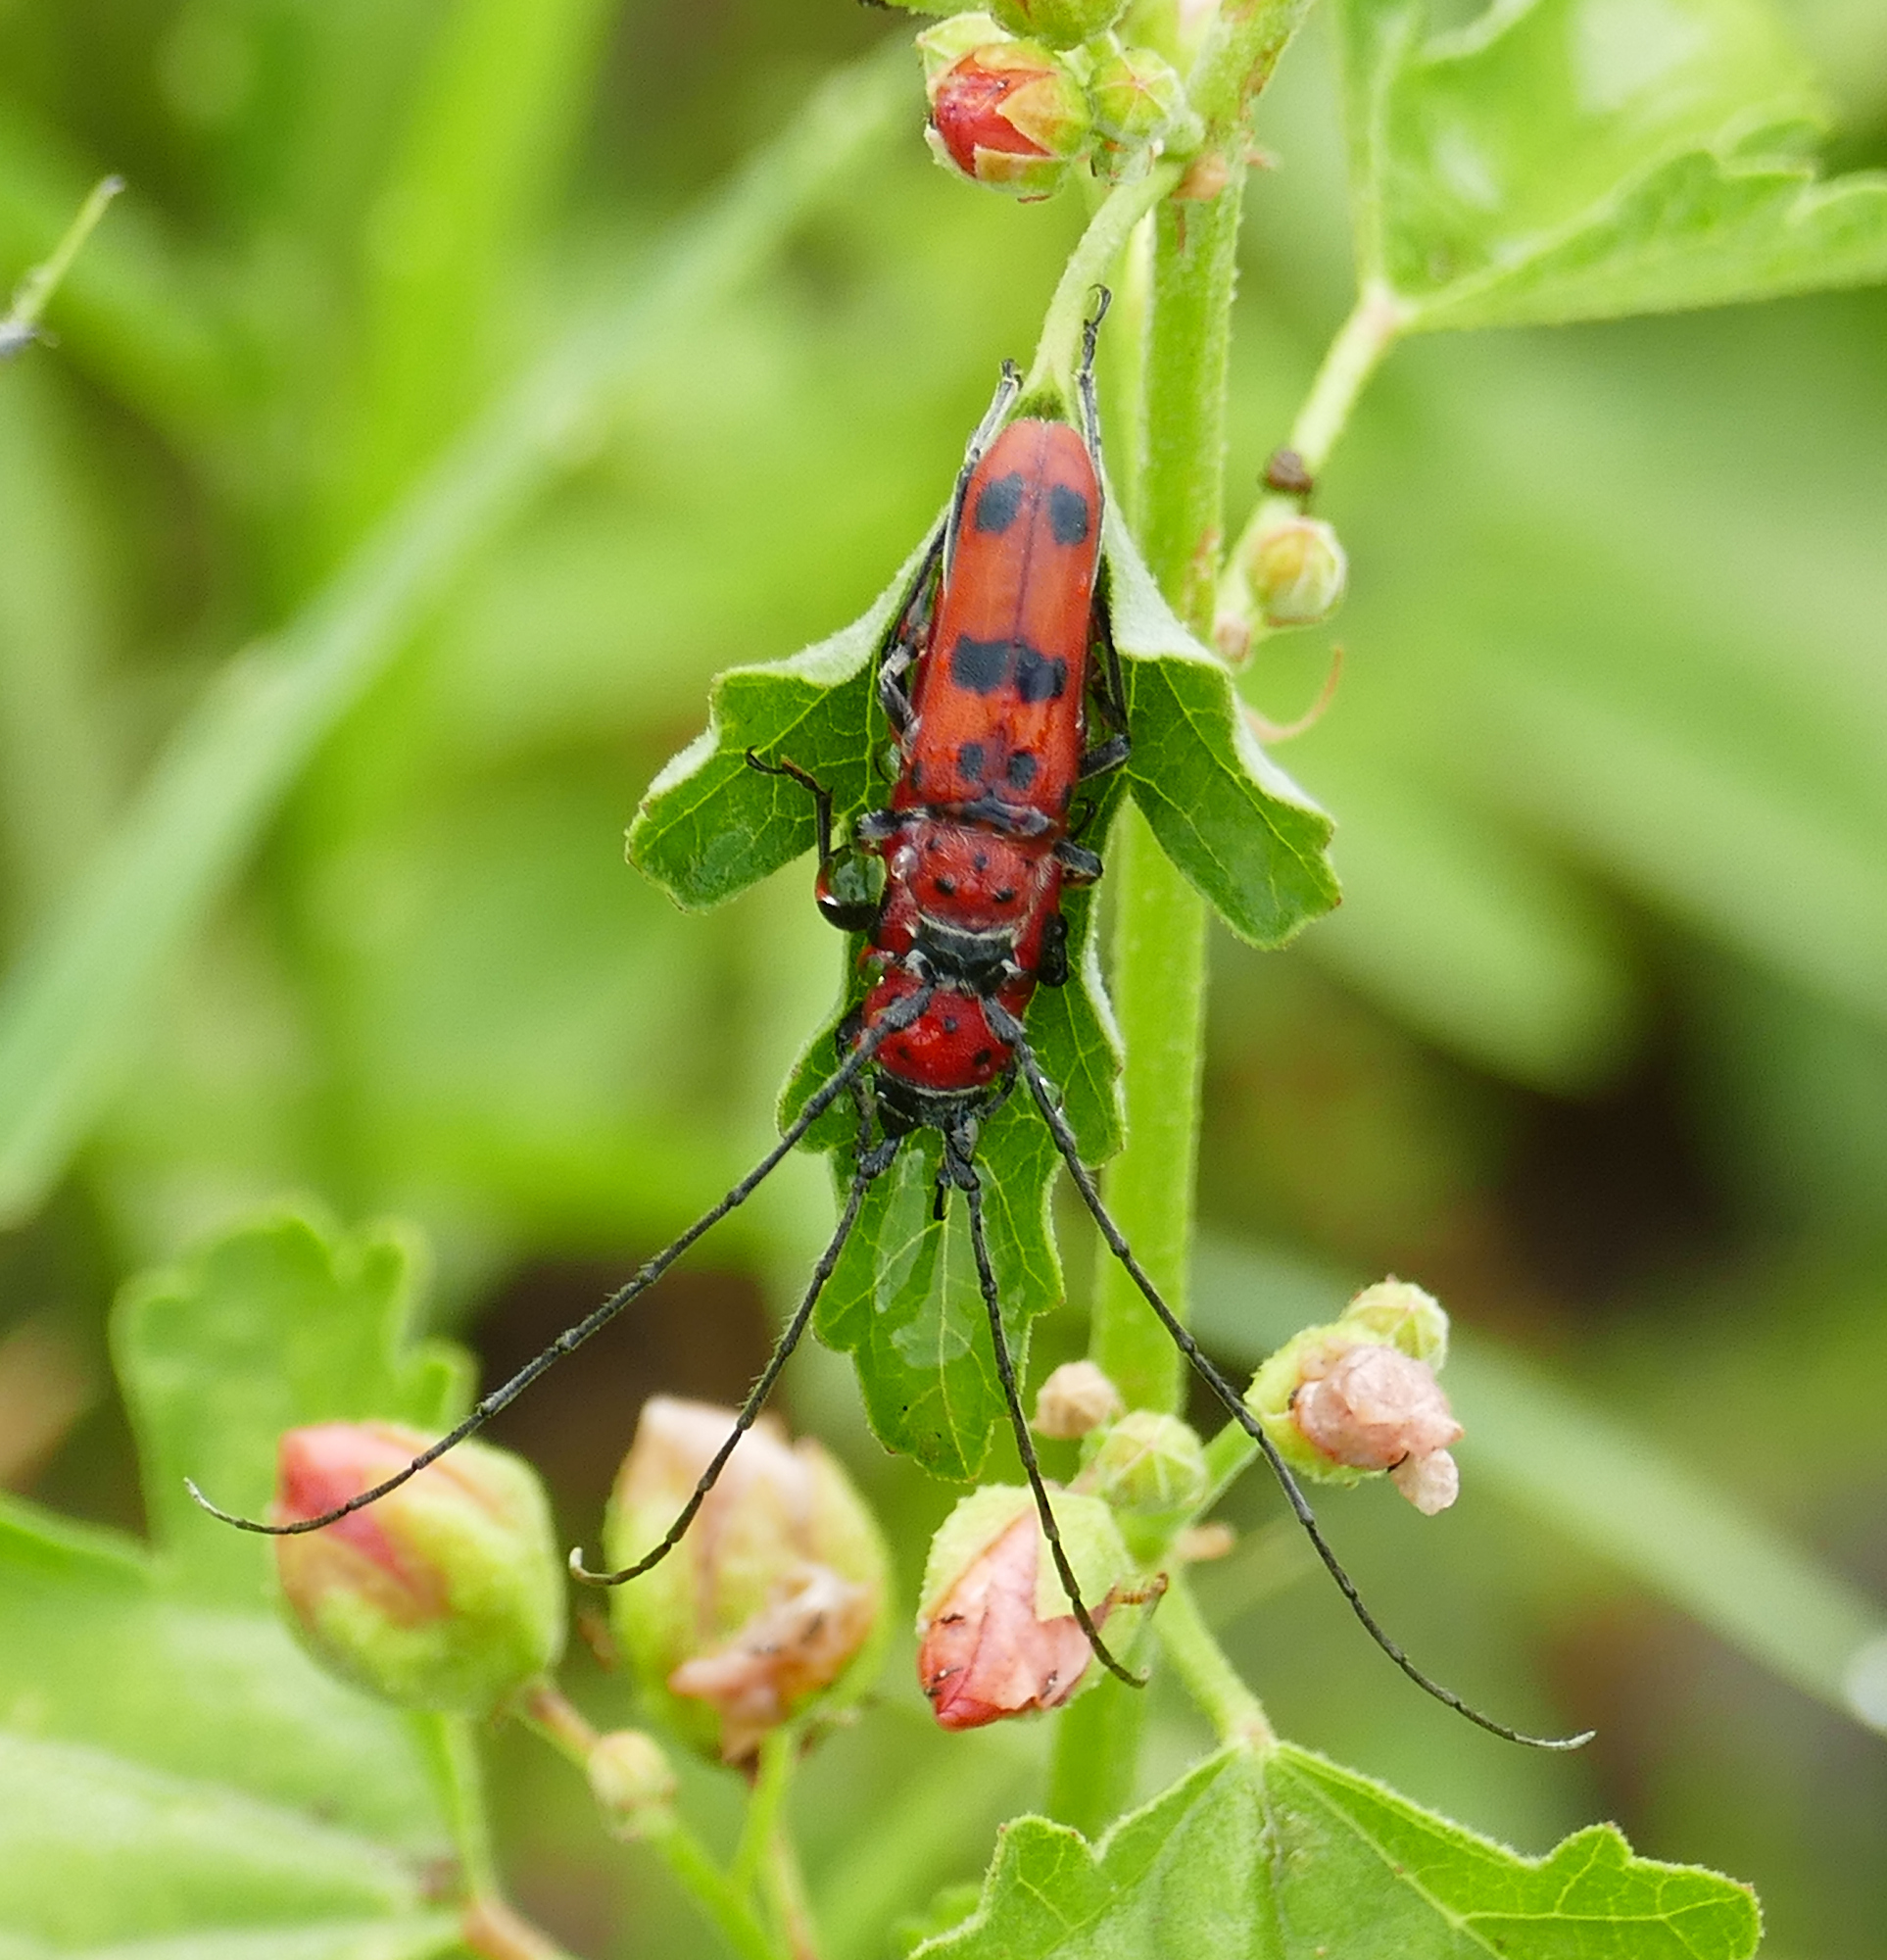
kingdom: Animalia
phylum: Arthropoda
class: Insecta
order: Coleoptera
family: Cerambycidae
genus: Tylosis
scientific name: Tylosis maculatus
